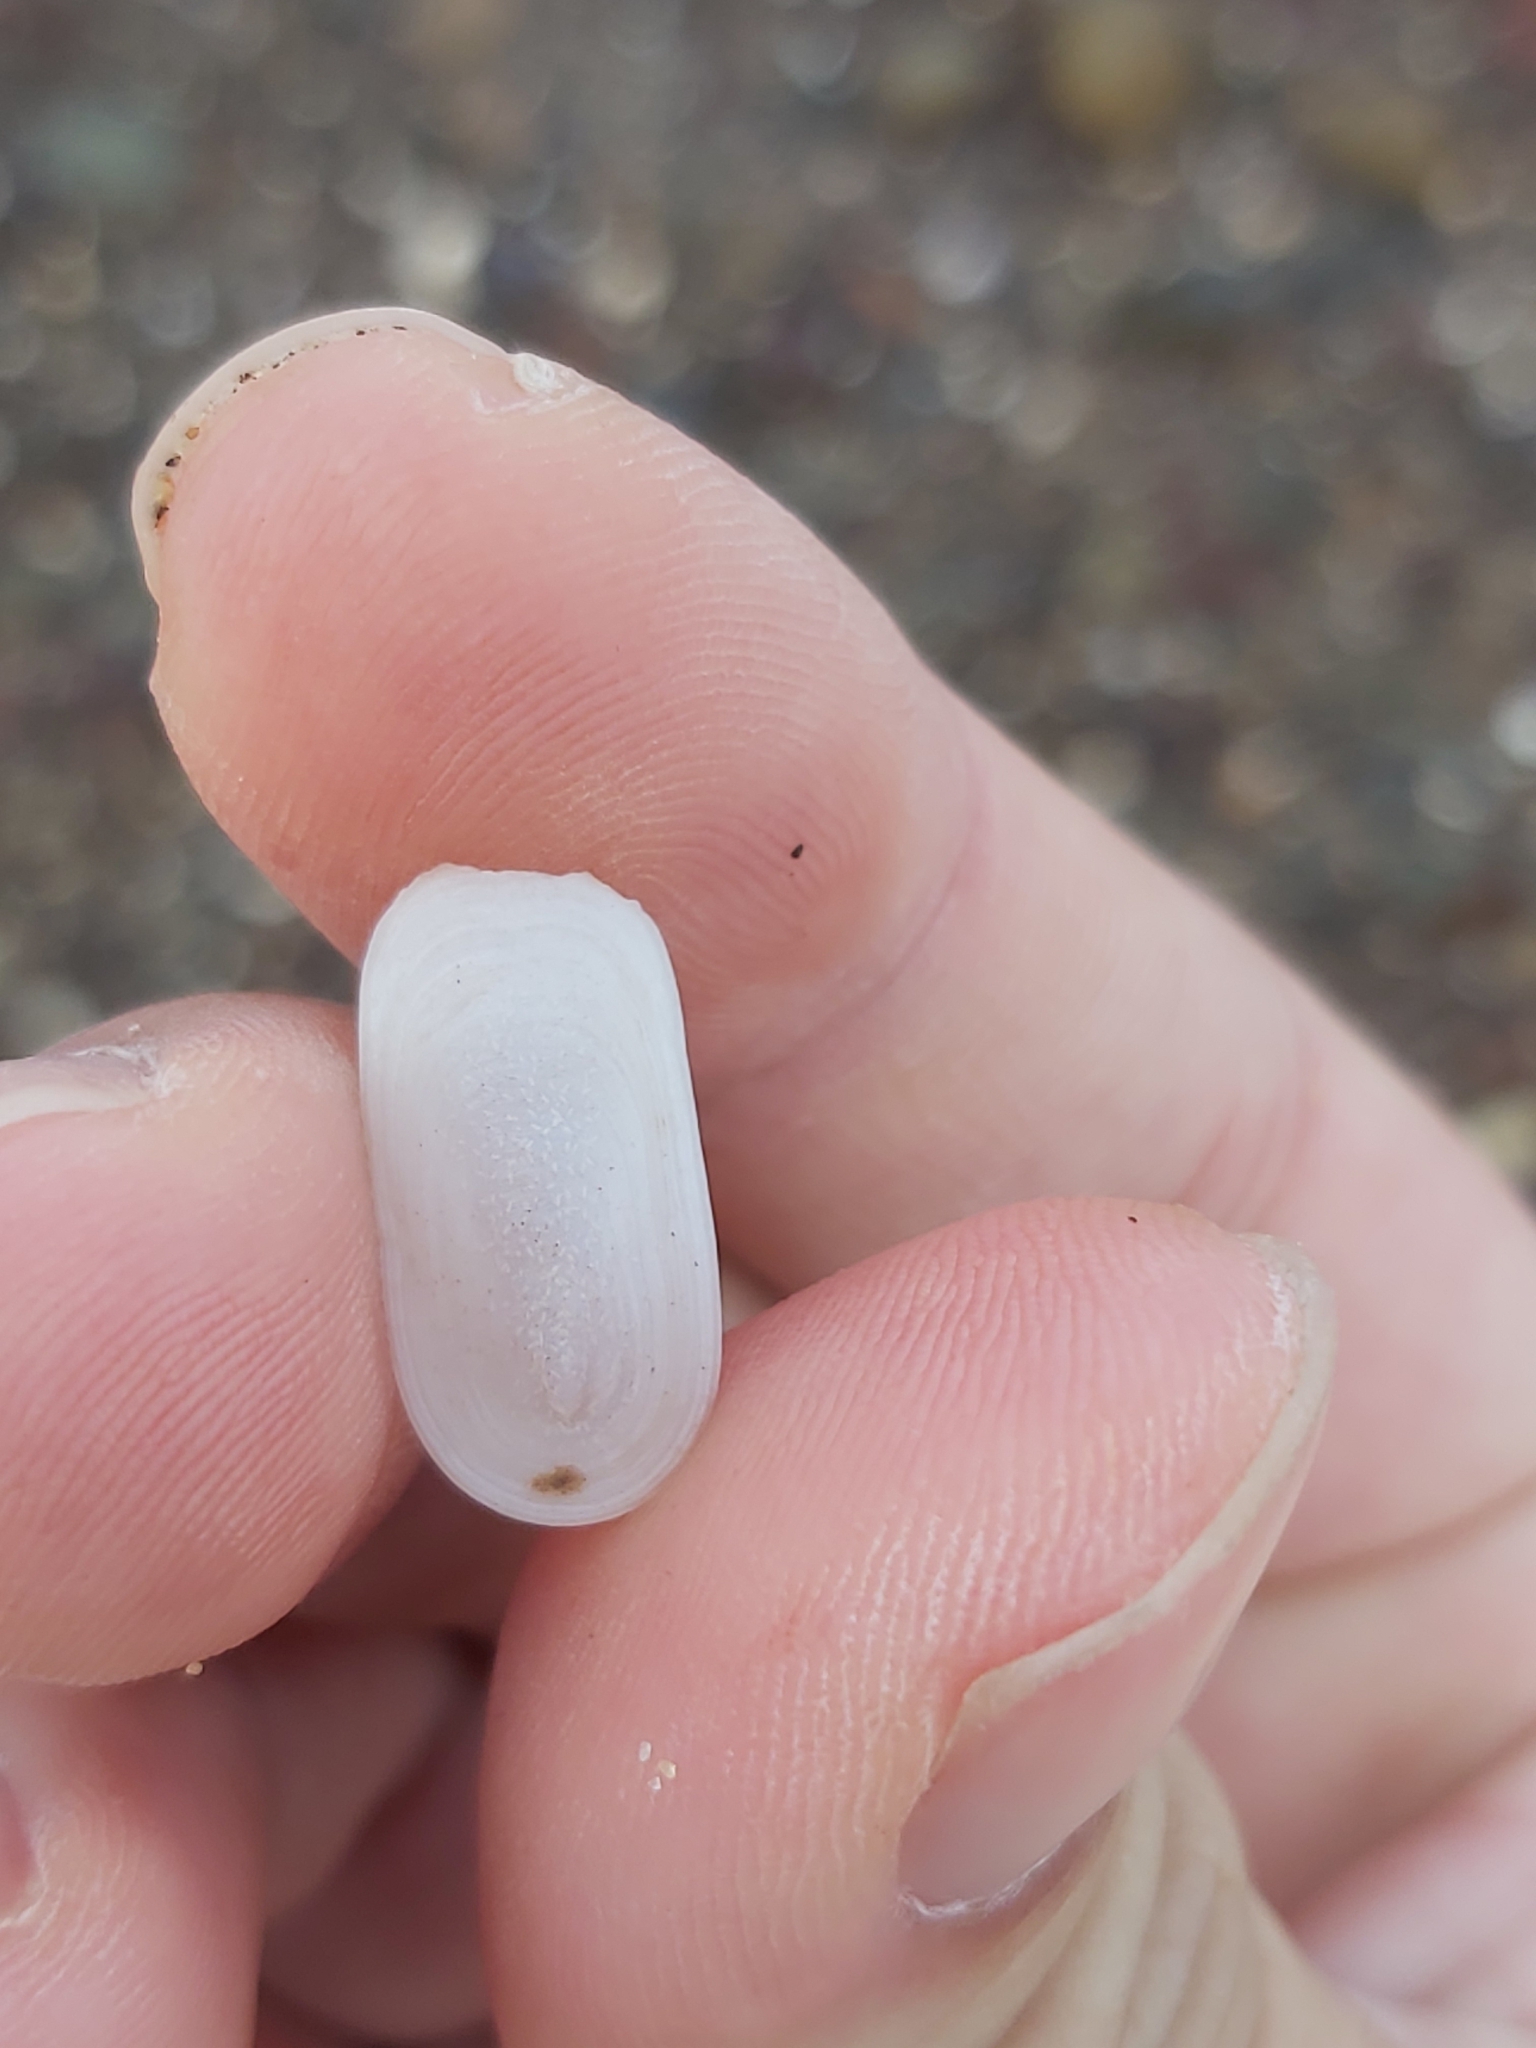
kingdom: Animalia
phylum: Mollusca
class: Gastropoda
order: Lepetellida
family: Fissurellidae
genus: Scutus
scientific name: Scutus antipodes
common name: Duckbill shell
